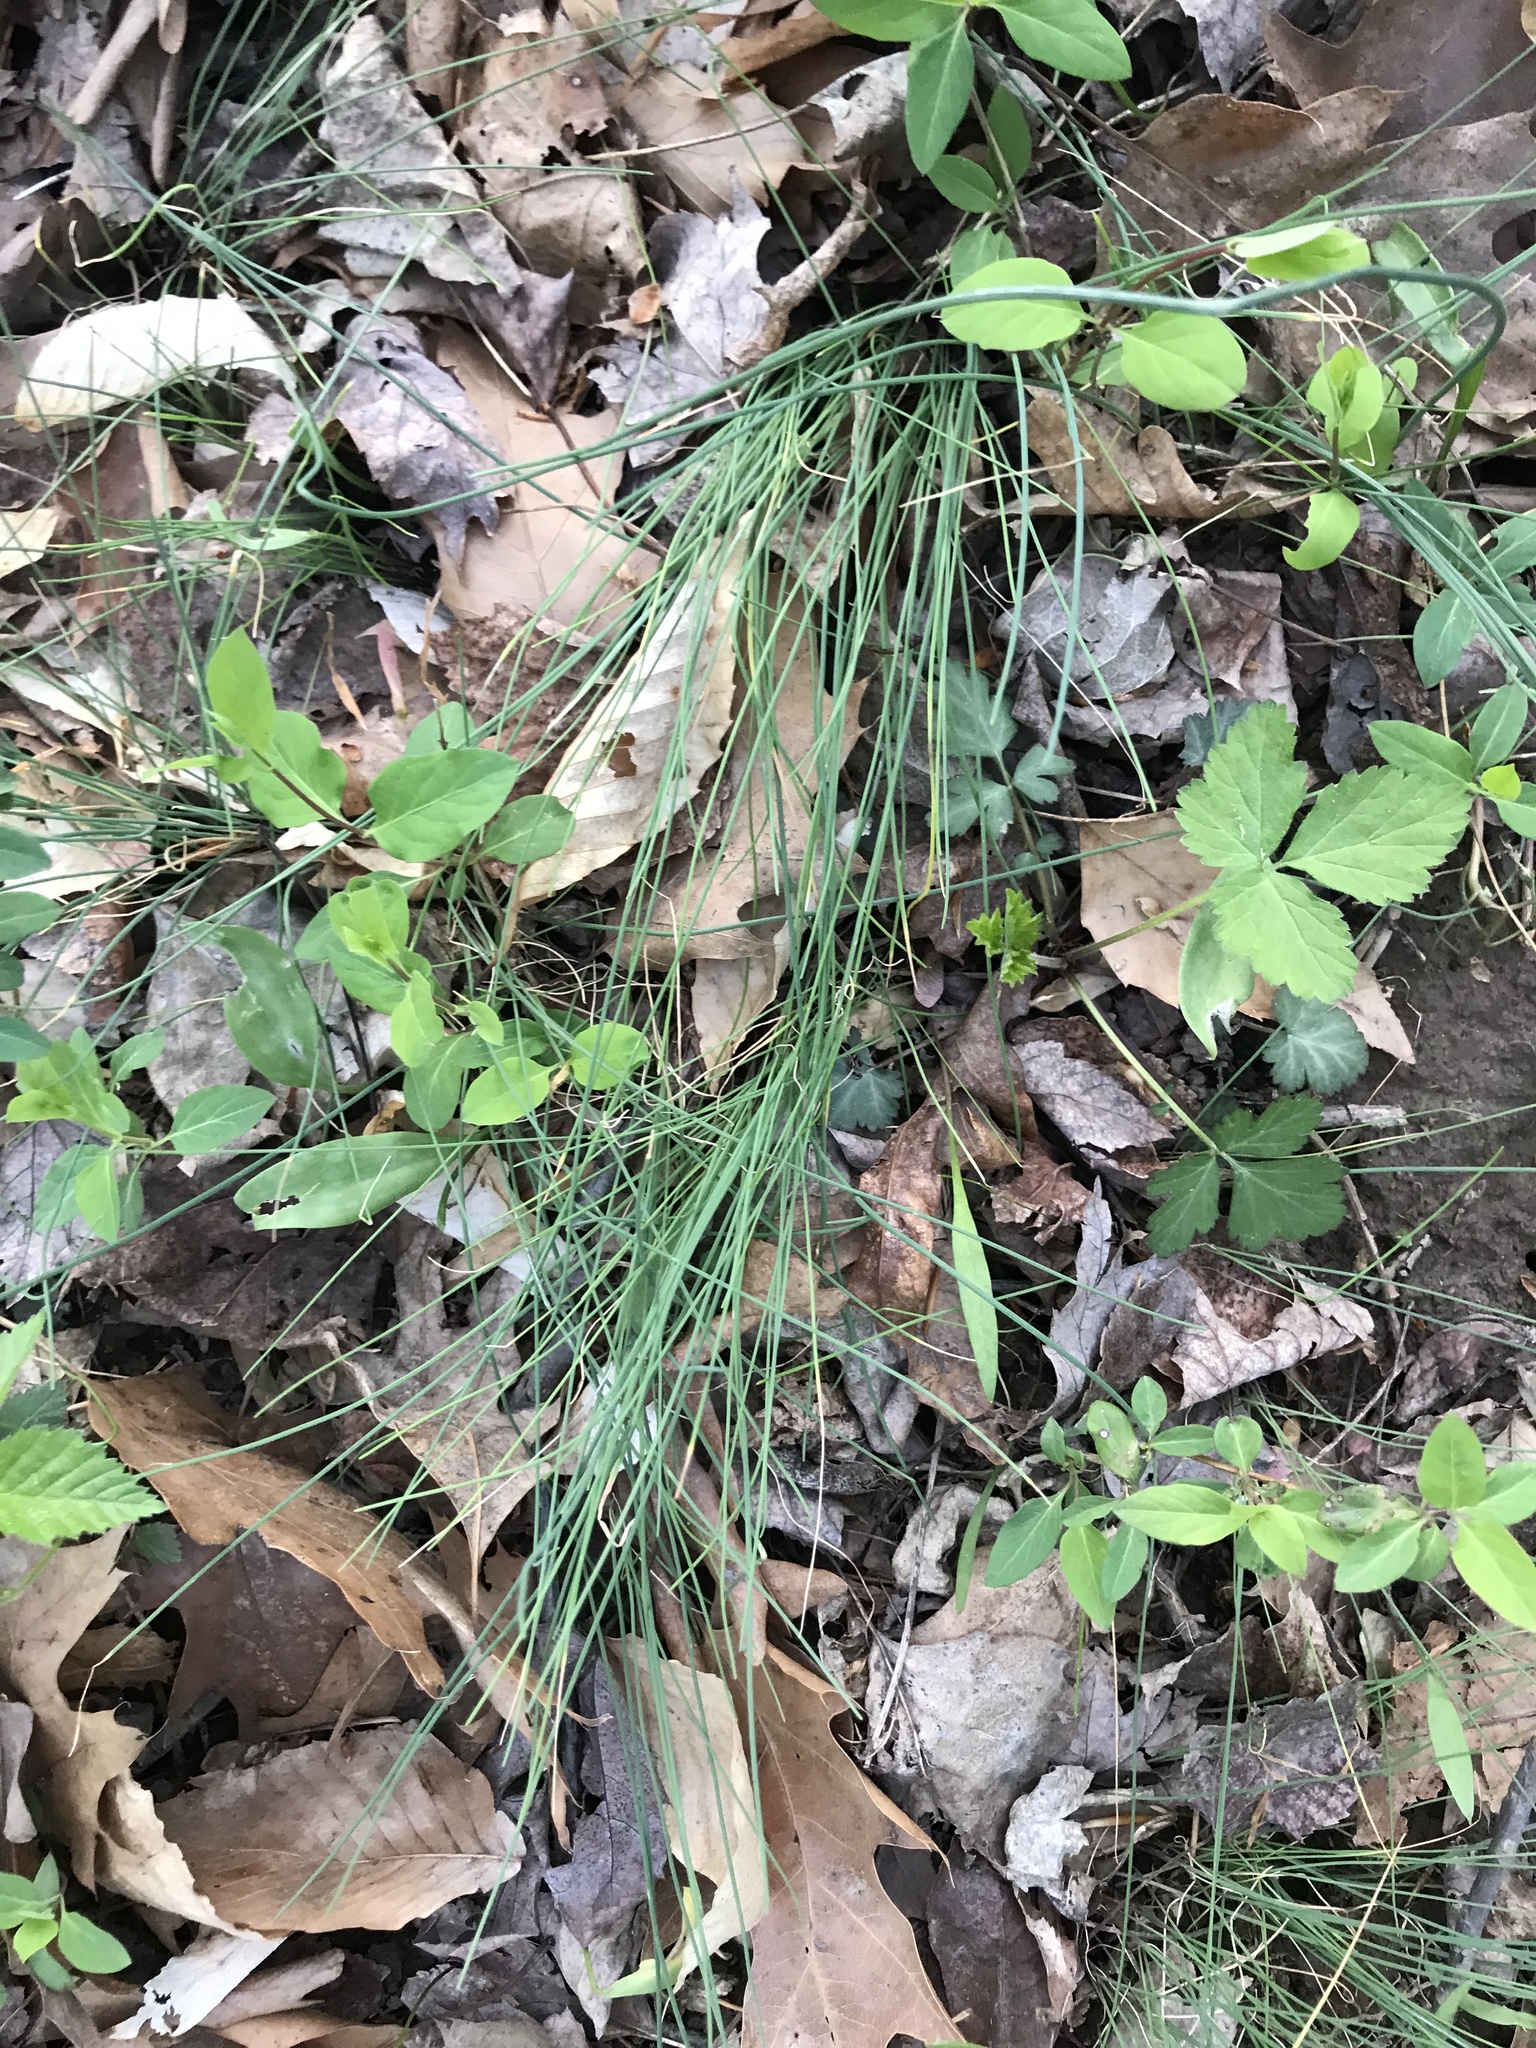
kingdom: Plantae
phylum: Tracheophyta
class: Liliopsida
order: Asparagales
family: Amaryllidaceae
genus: Allium
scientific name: Allium vineale
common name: Crow garlic
